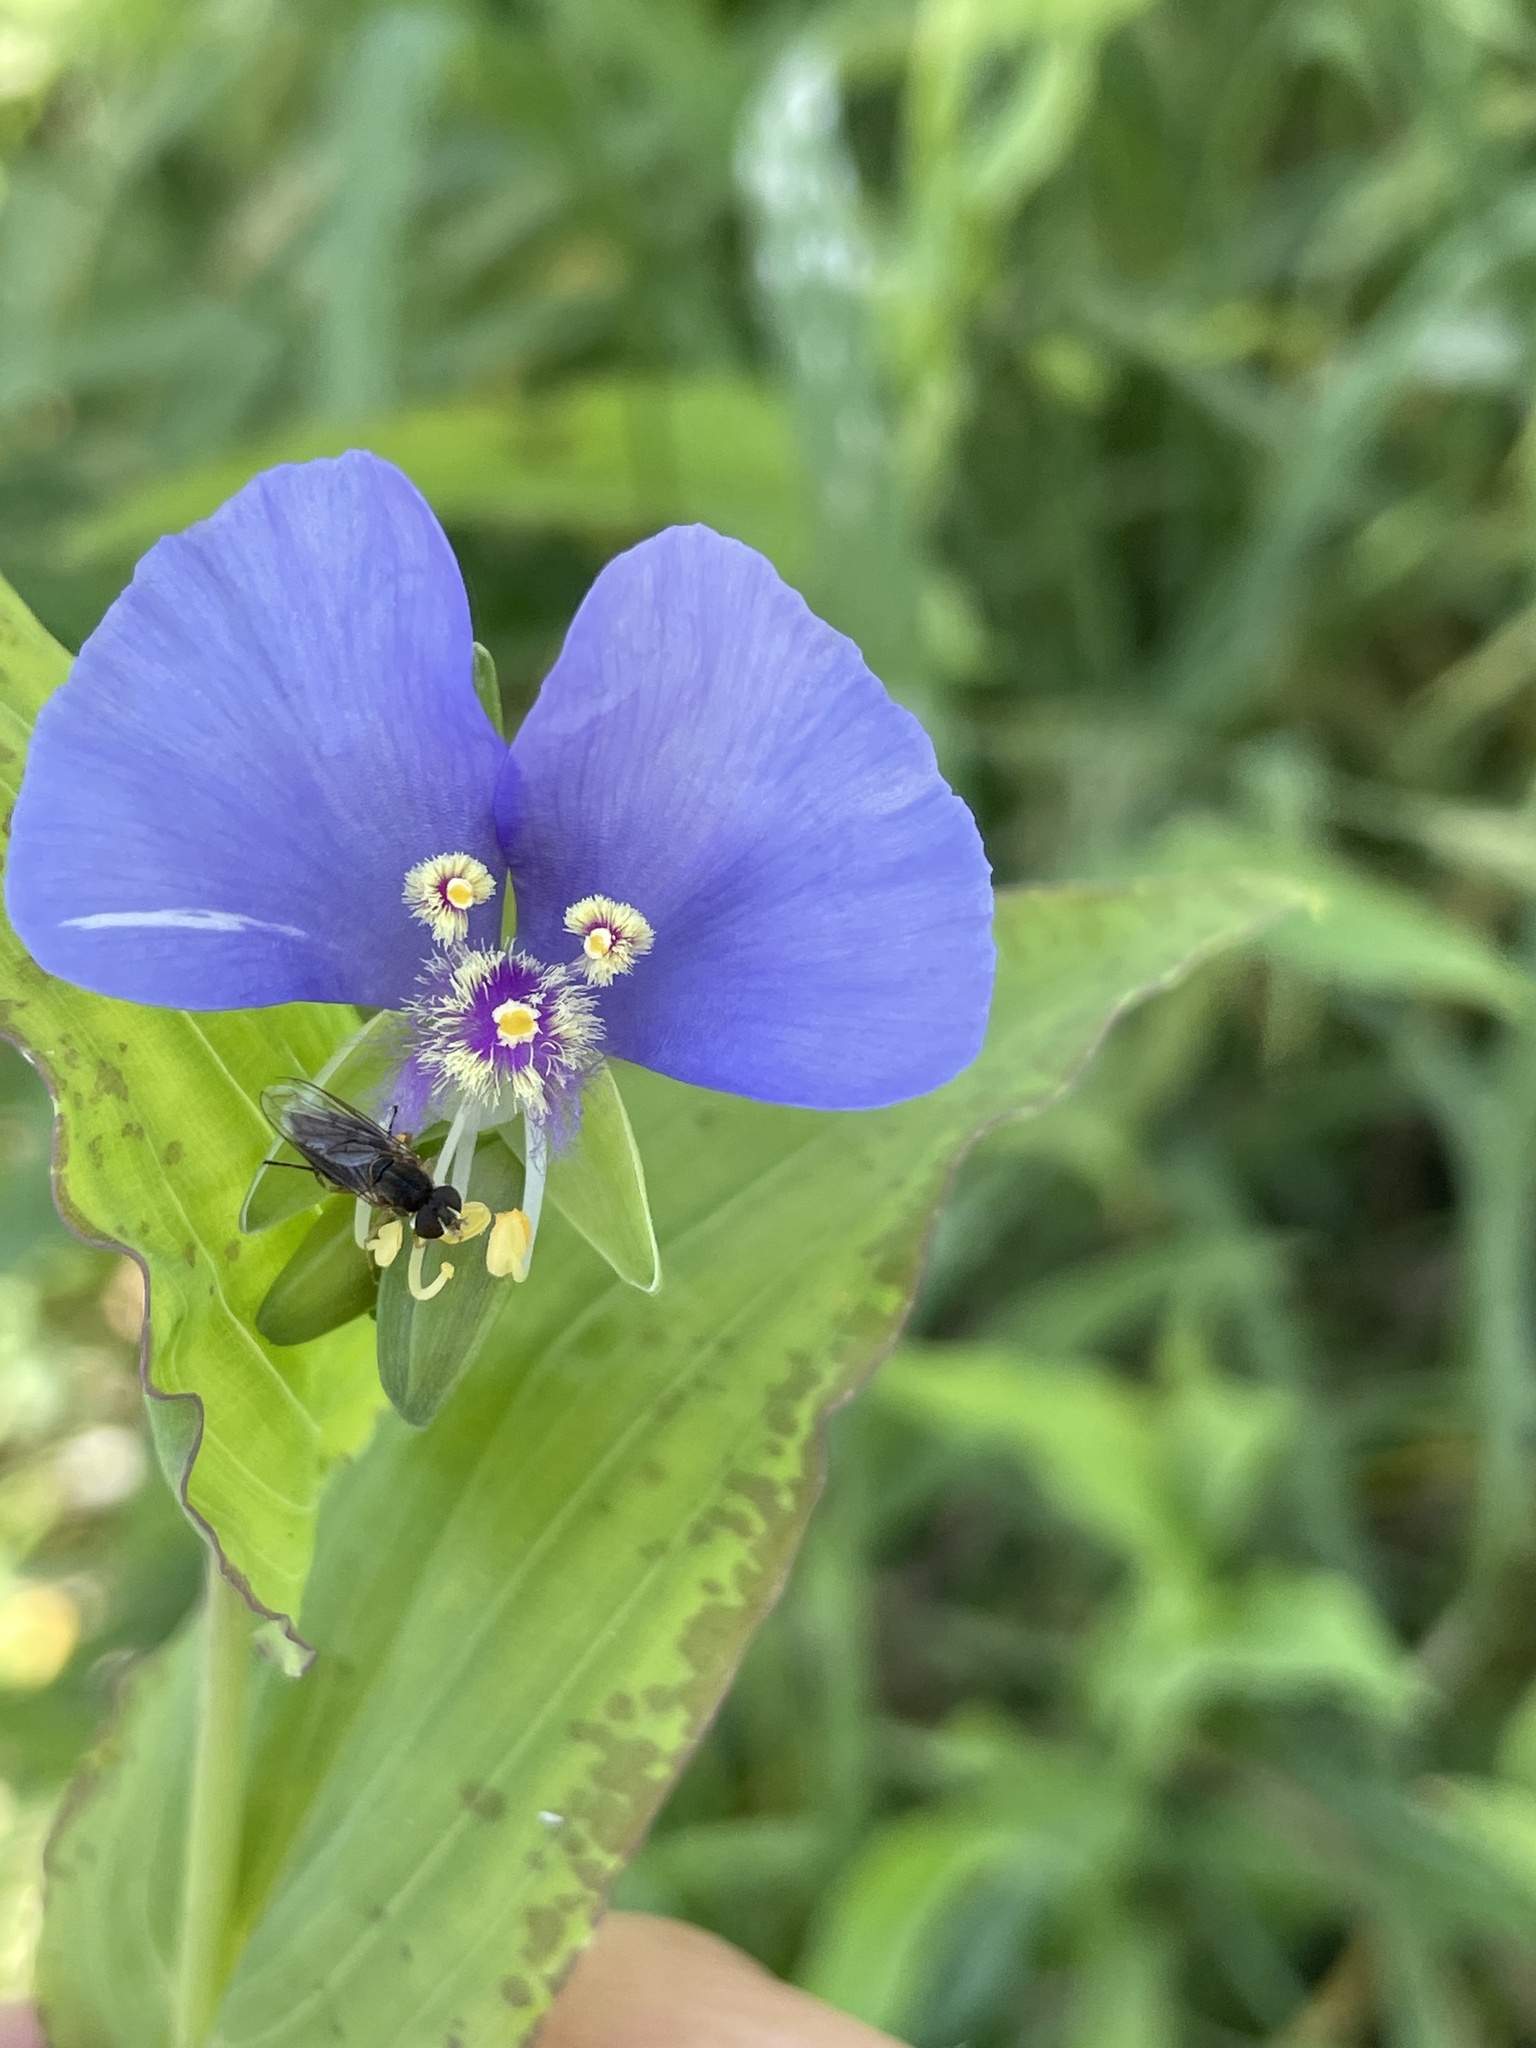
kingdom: Plantae
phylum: Tracheophyta
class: Liliopsida
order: Commelinales
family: Commelinaceae
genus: Tinantia
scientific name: Tinantia anomala
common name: False dayflower
